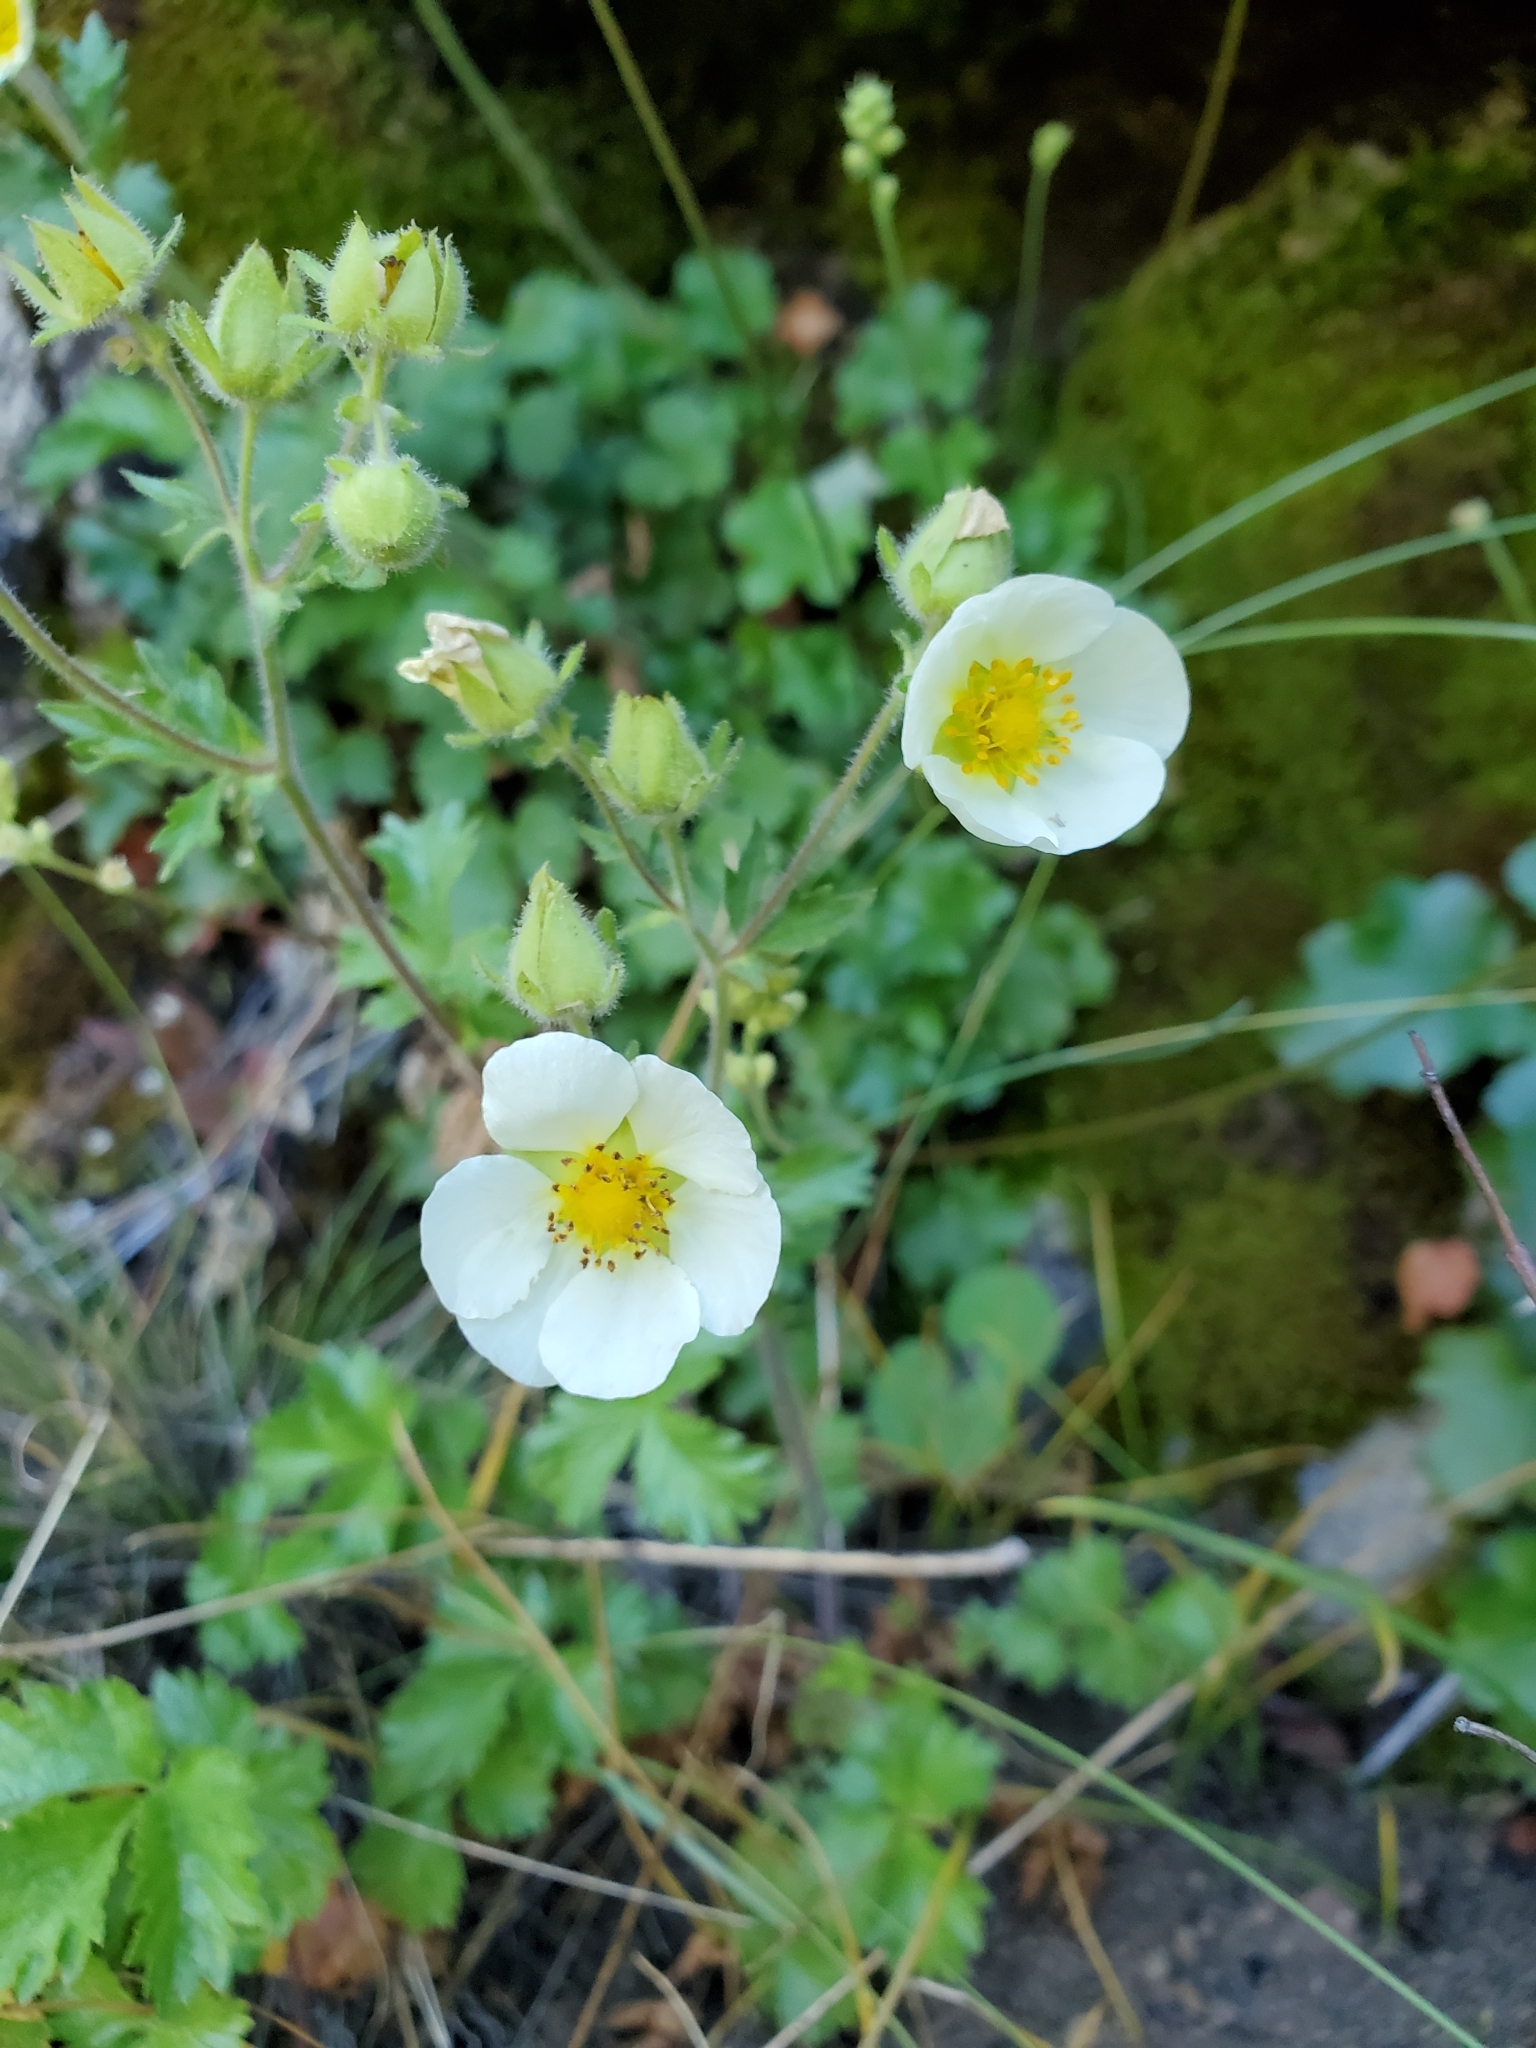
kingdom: Plantae
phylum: Tracheophyta
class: Magnoliopsida
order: Rosales
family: Rosaceae
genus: Drymocallis
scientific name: Drymocallis pseudorupestris
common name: Sticky cinquefoil
